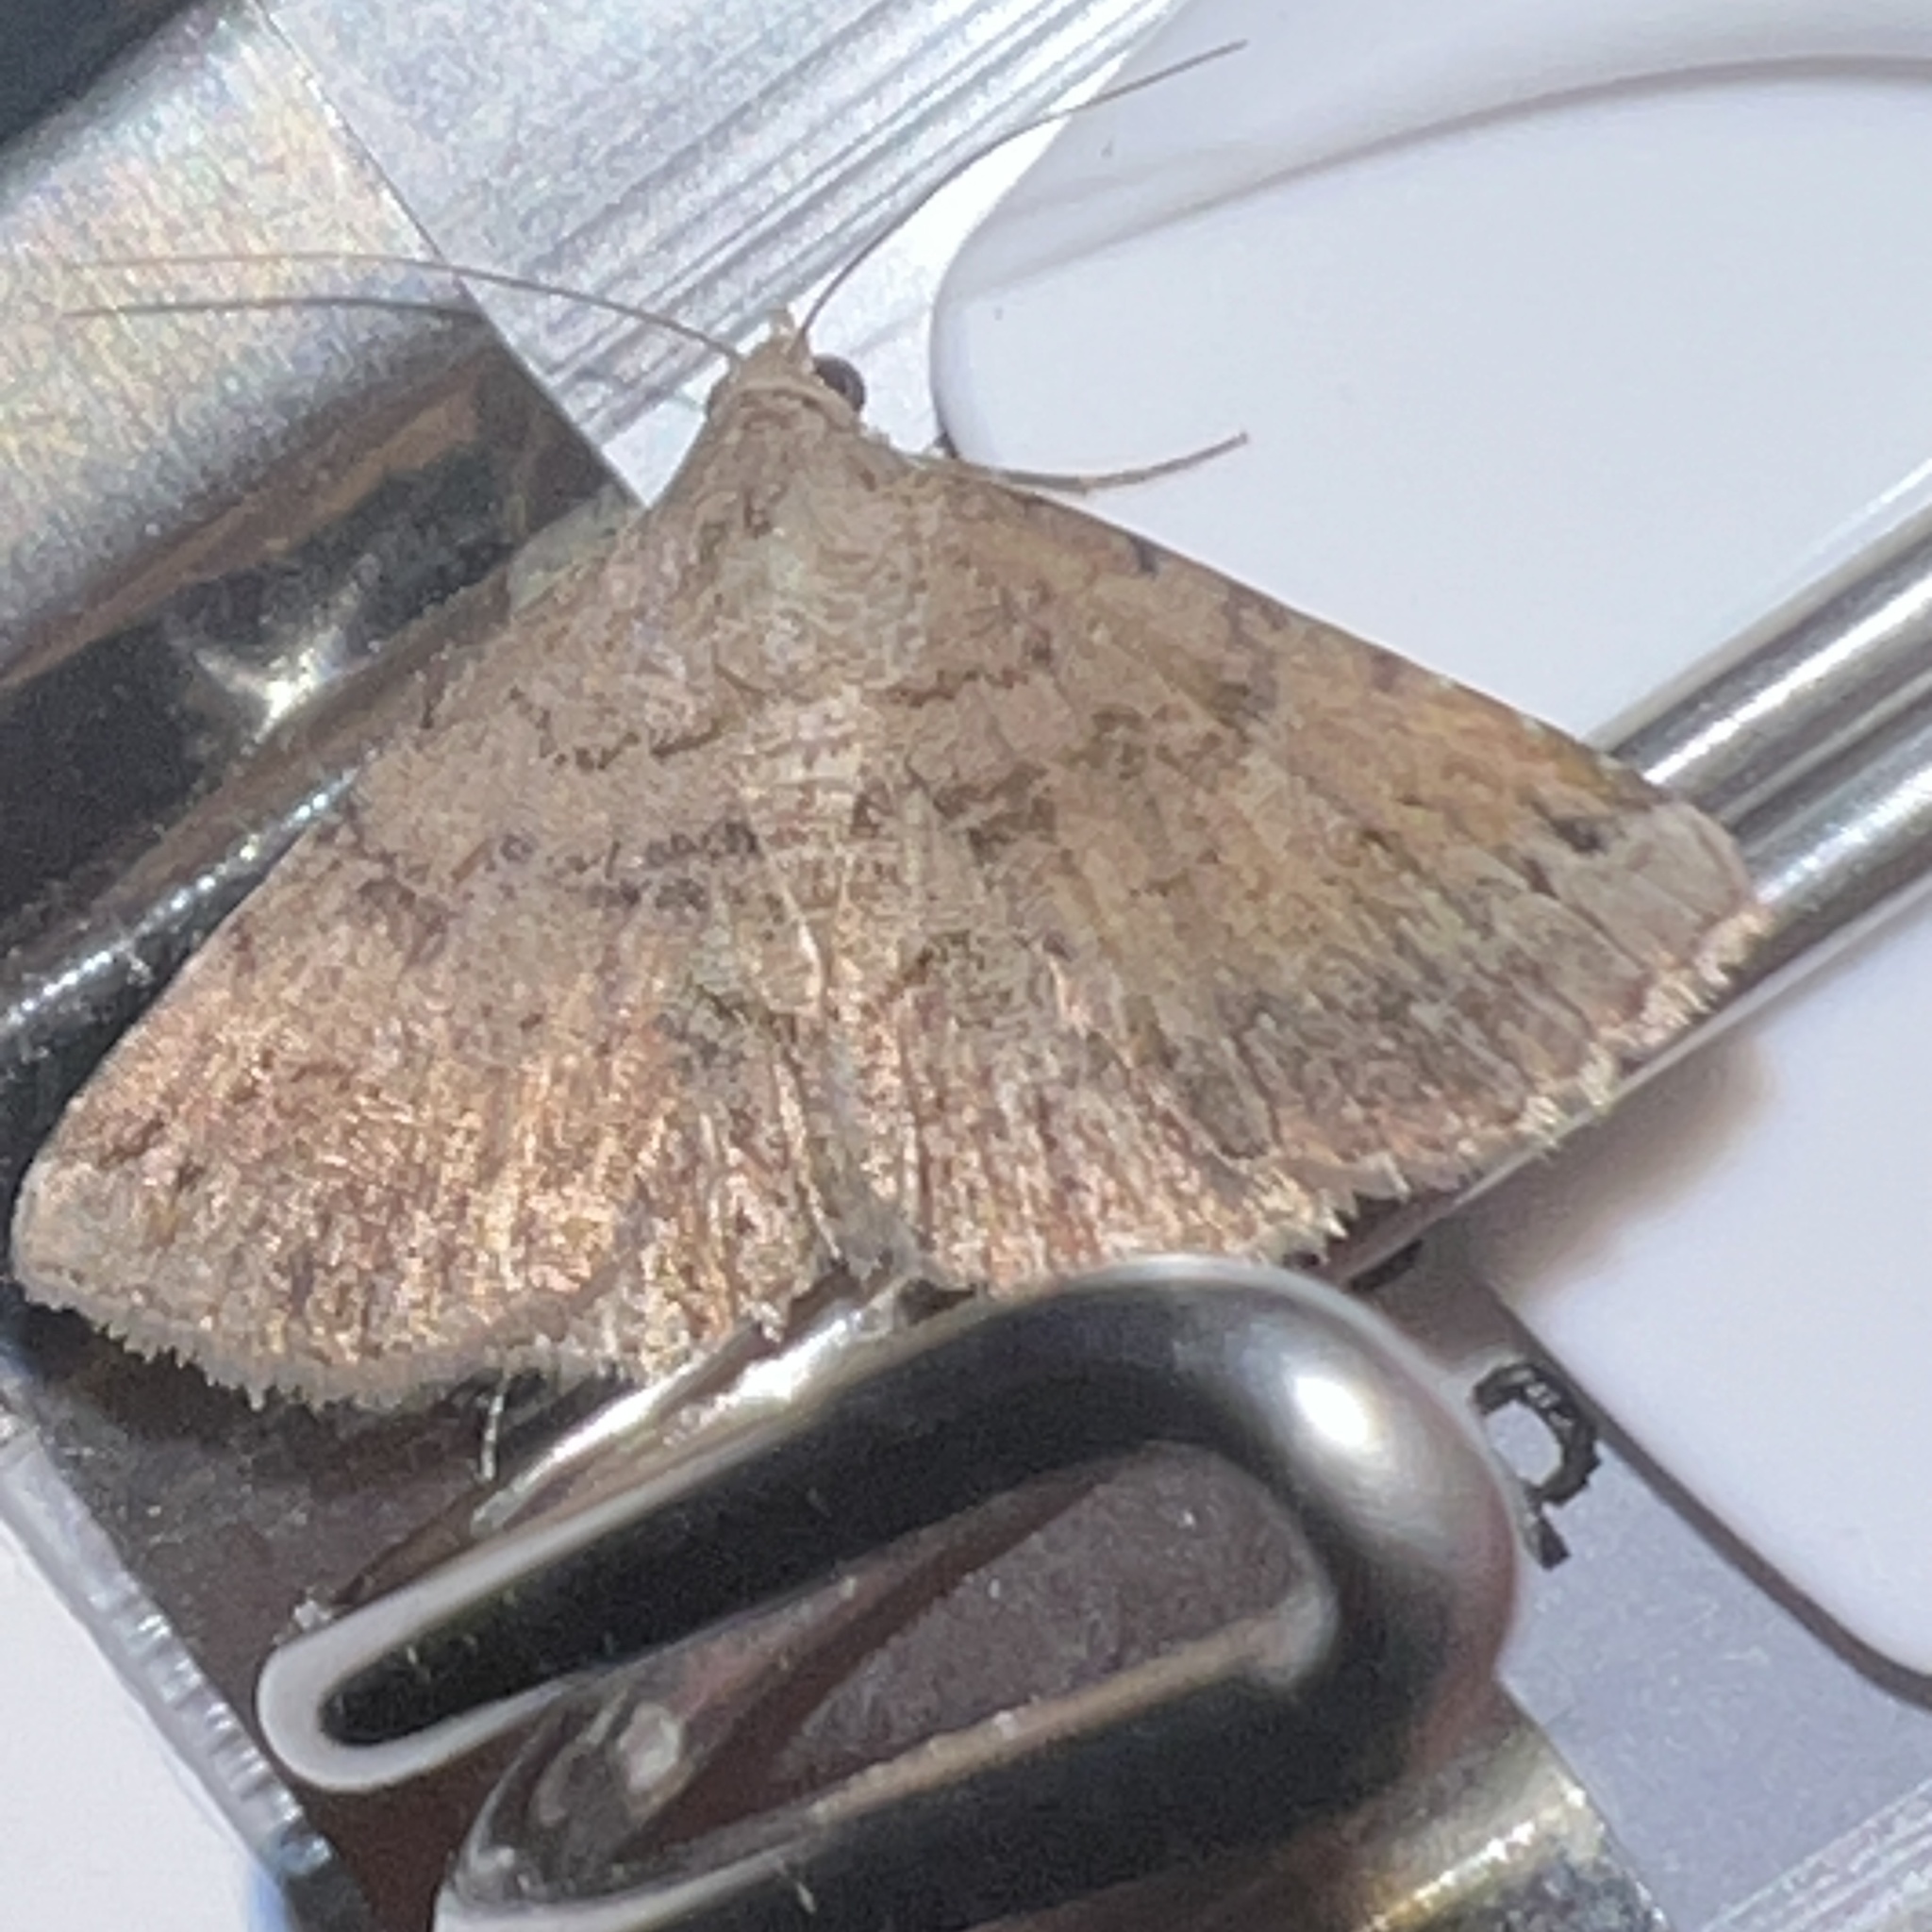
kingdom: Animalia
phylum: Arthropoda
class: Insecta
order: Lepidoptera
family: Erebidae
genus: Toxonprucha
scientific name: Toxonprucha crudelis
